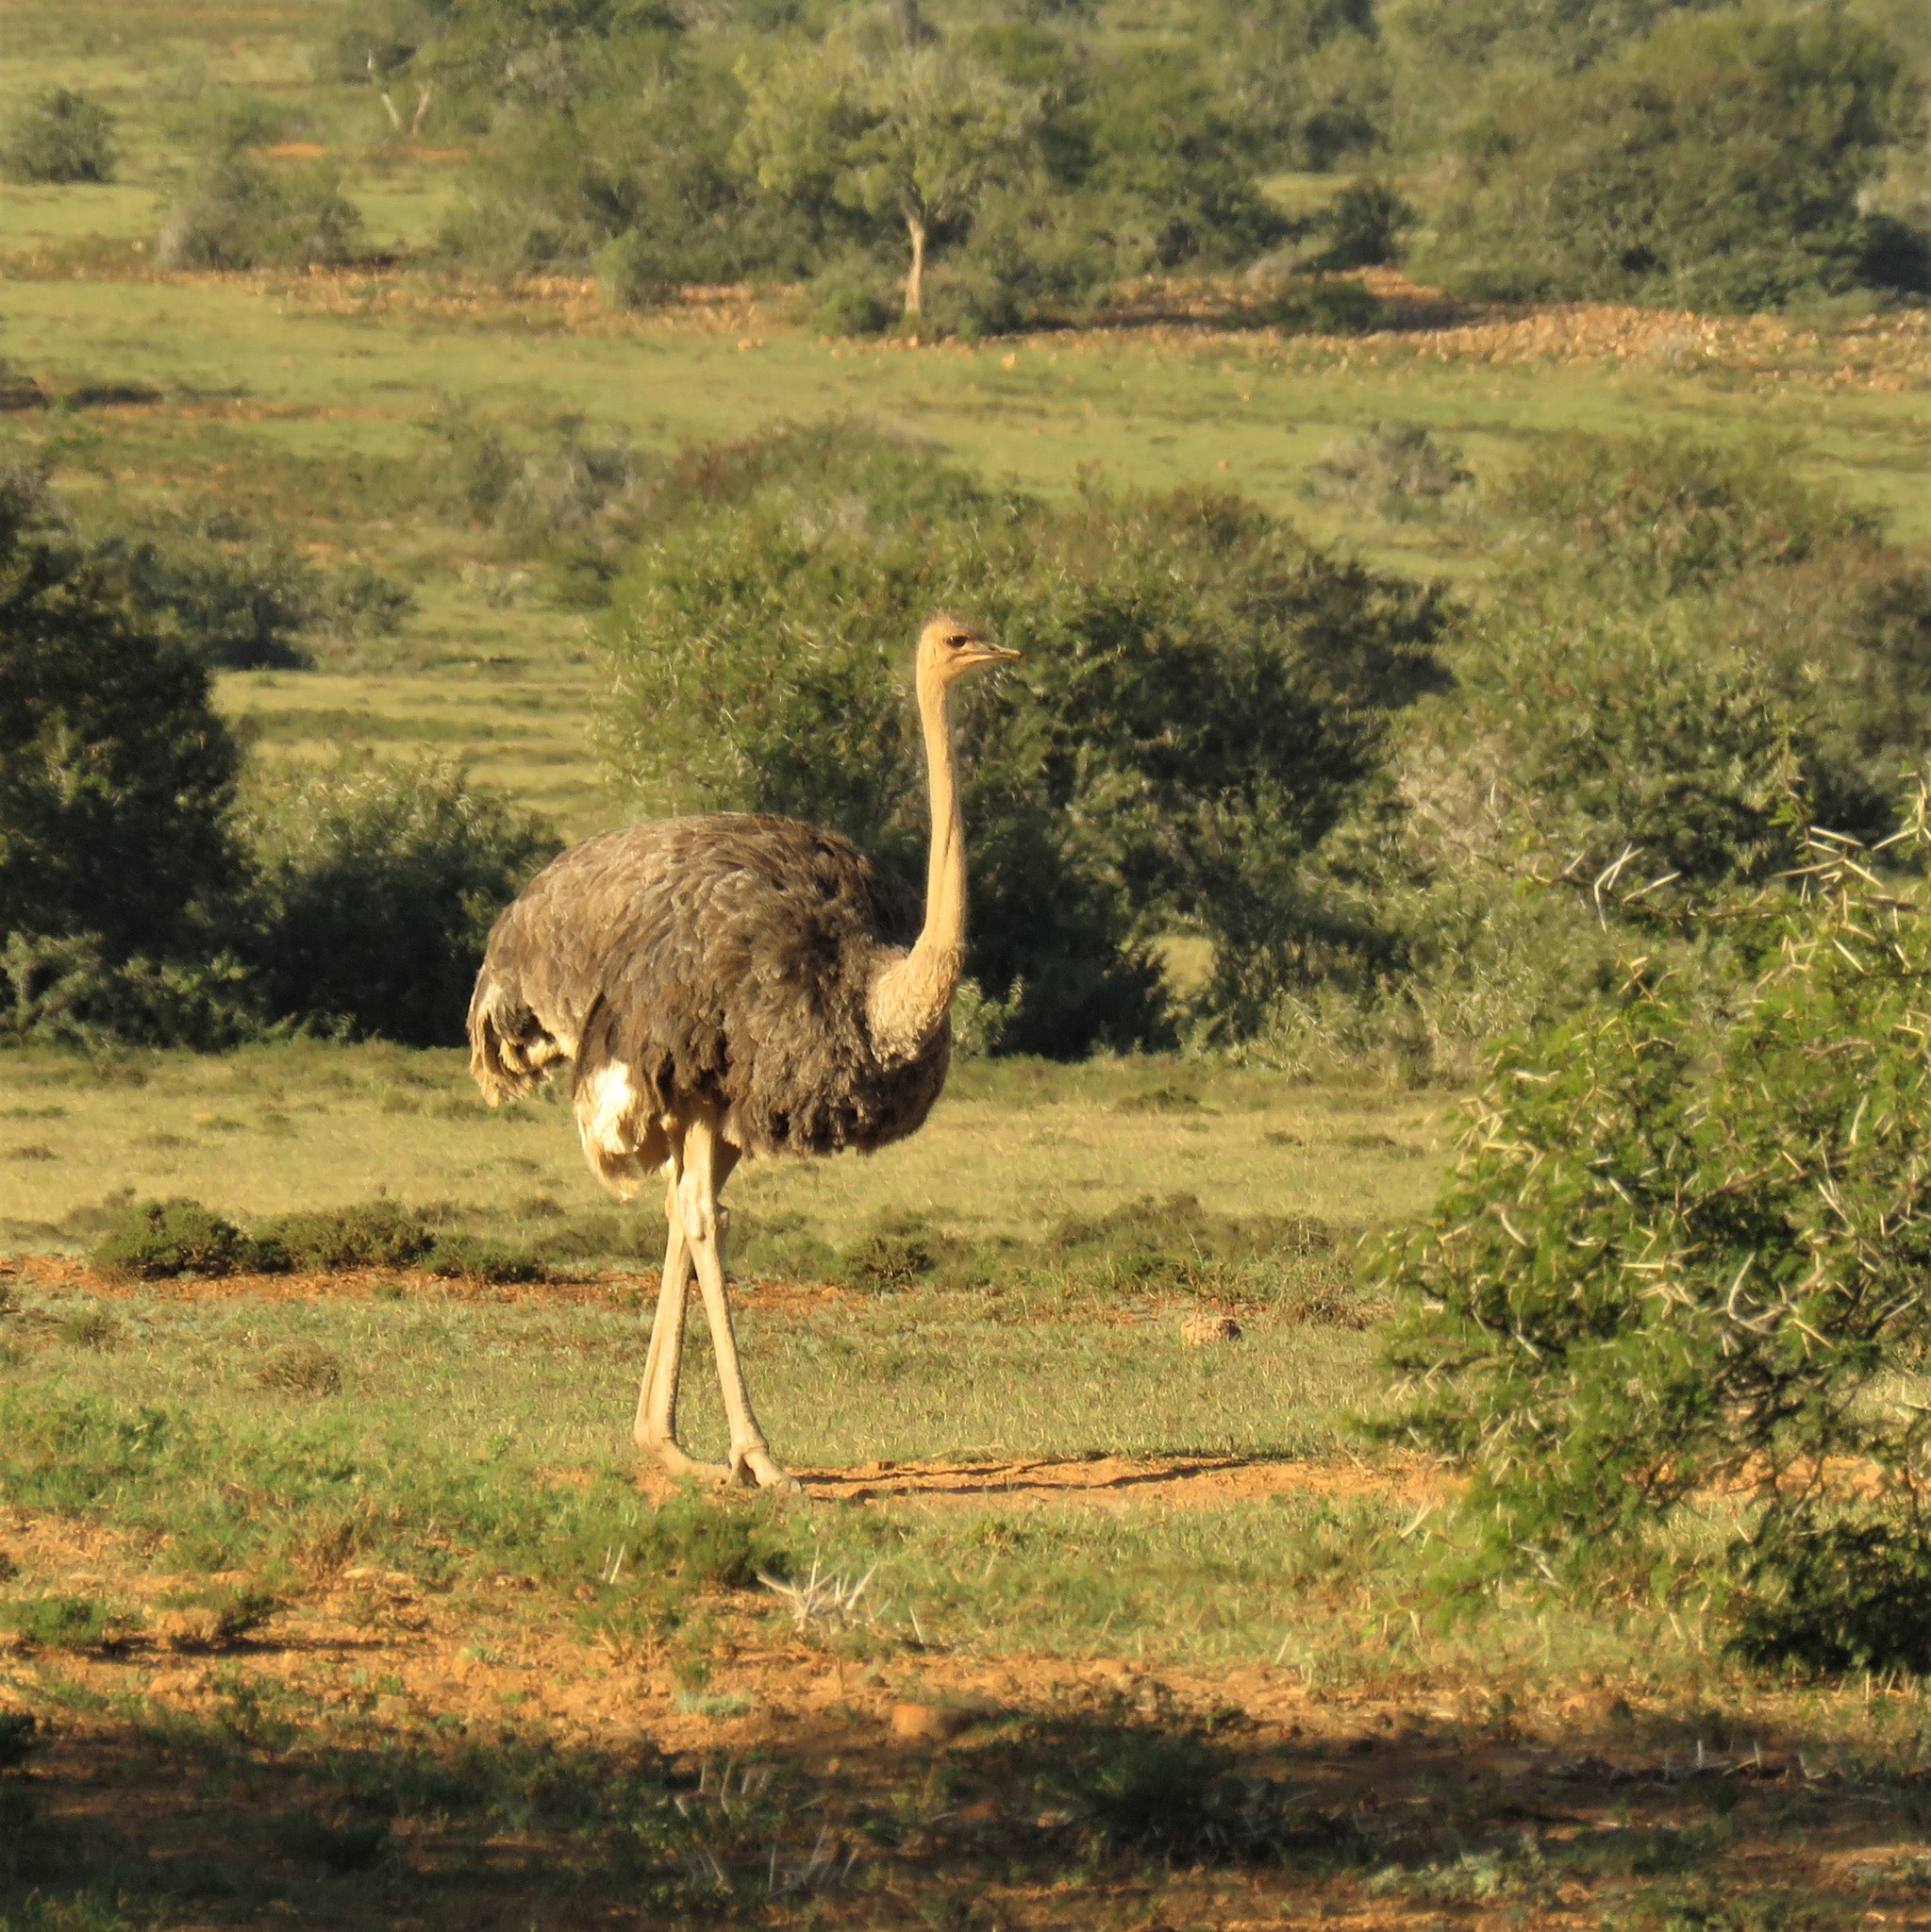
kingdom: Animalia
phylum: Chordata
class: Aves
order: Struthioniformes
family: Struthionidae
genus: Struthio
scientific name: Struthio camelus
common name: Common ostrich
